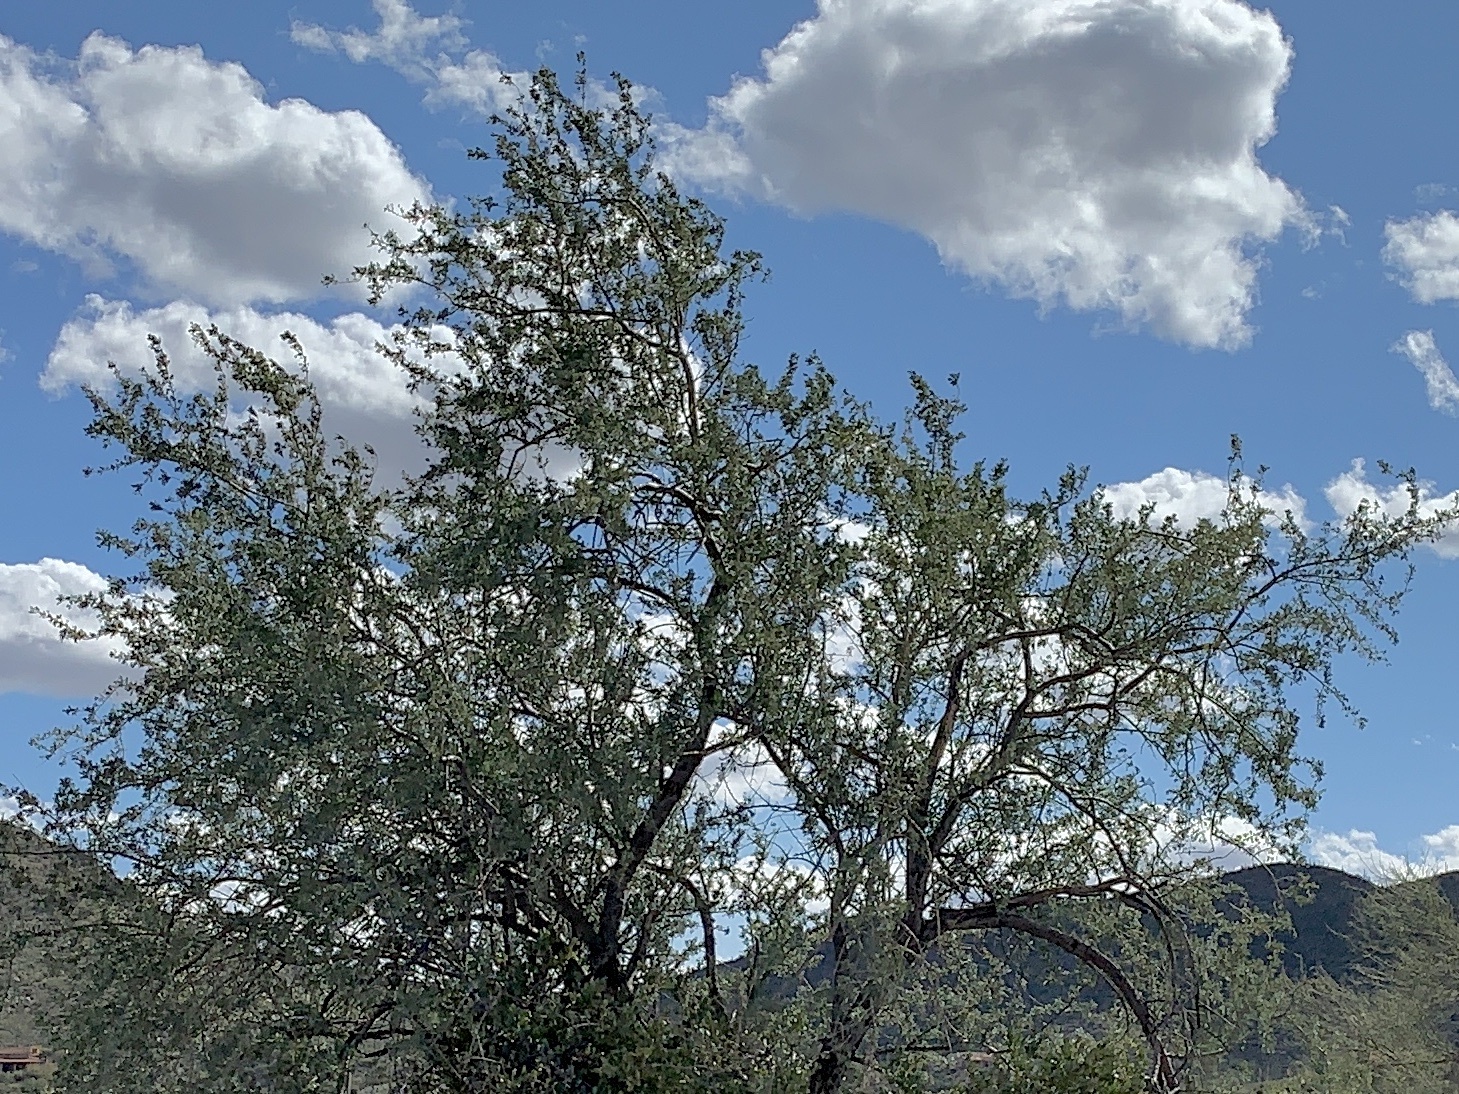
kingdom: Plantae
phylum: Tracheophyta
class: Magnoliopsida
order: Fabales
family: Fabaceae
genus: Olneya
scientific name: Olneya tesota
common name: Desert ironwood
